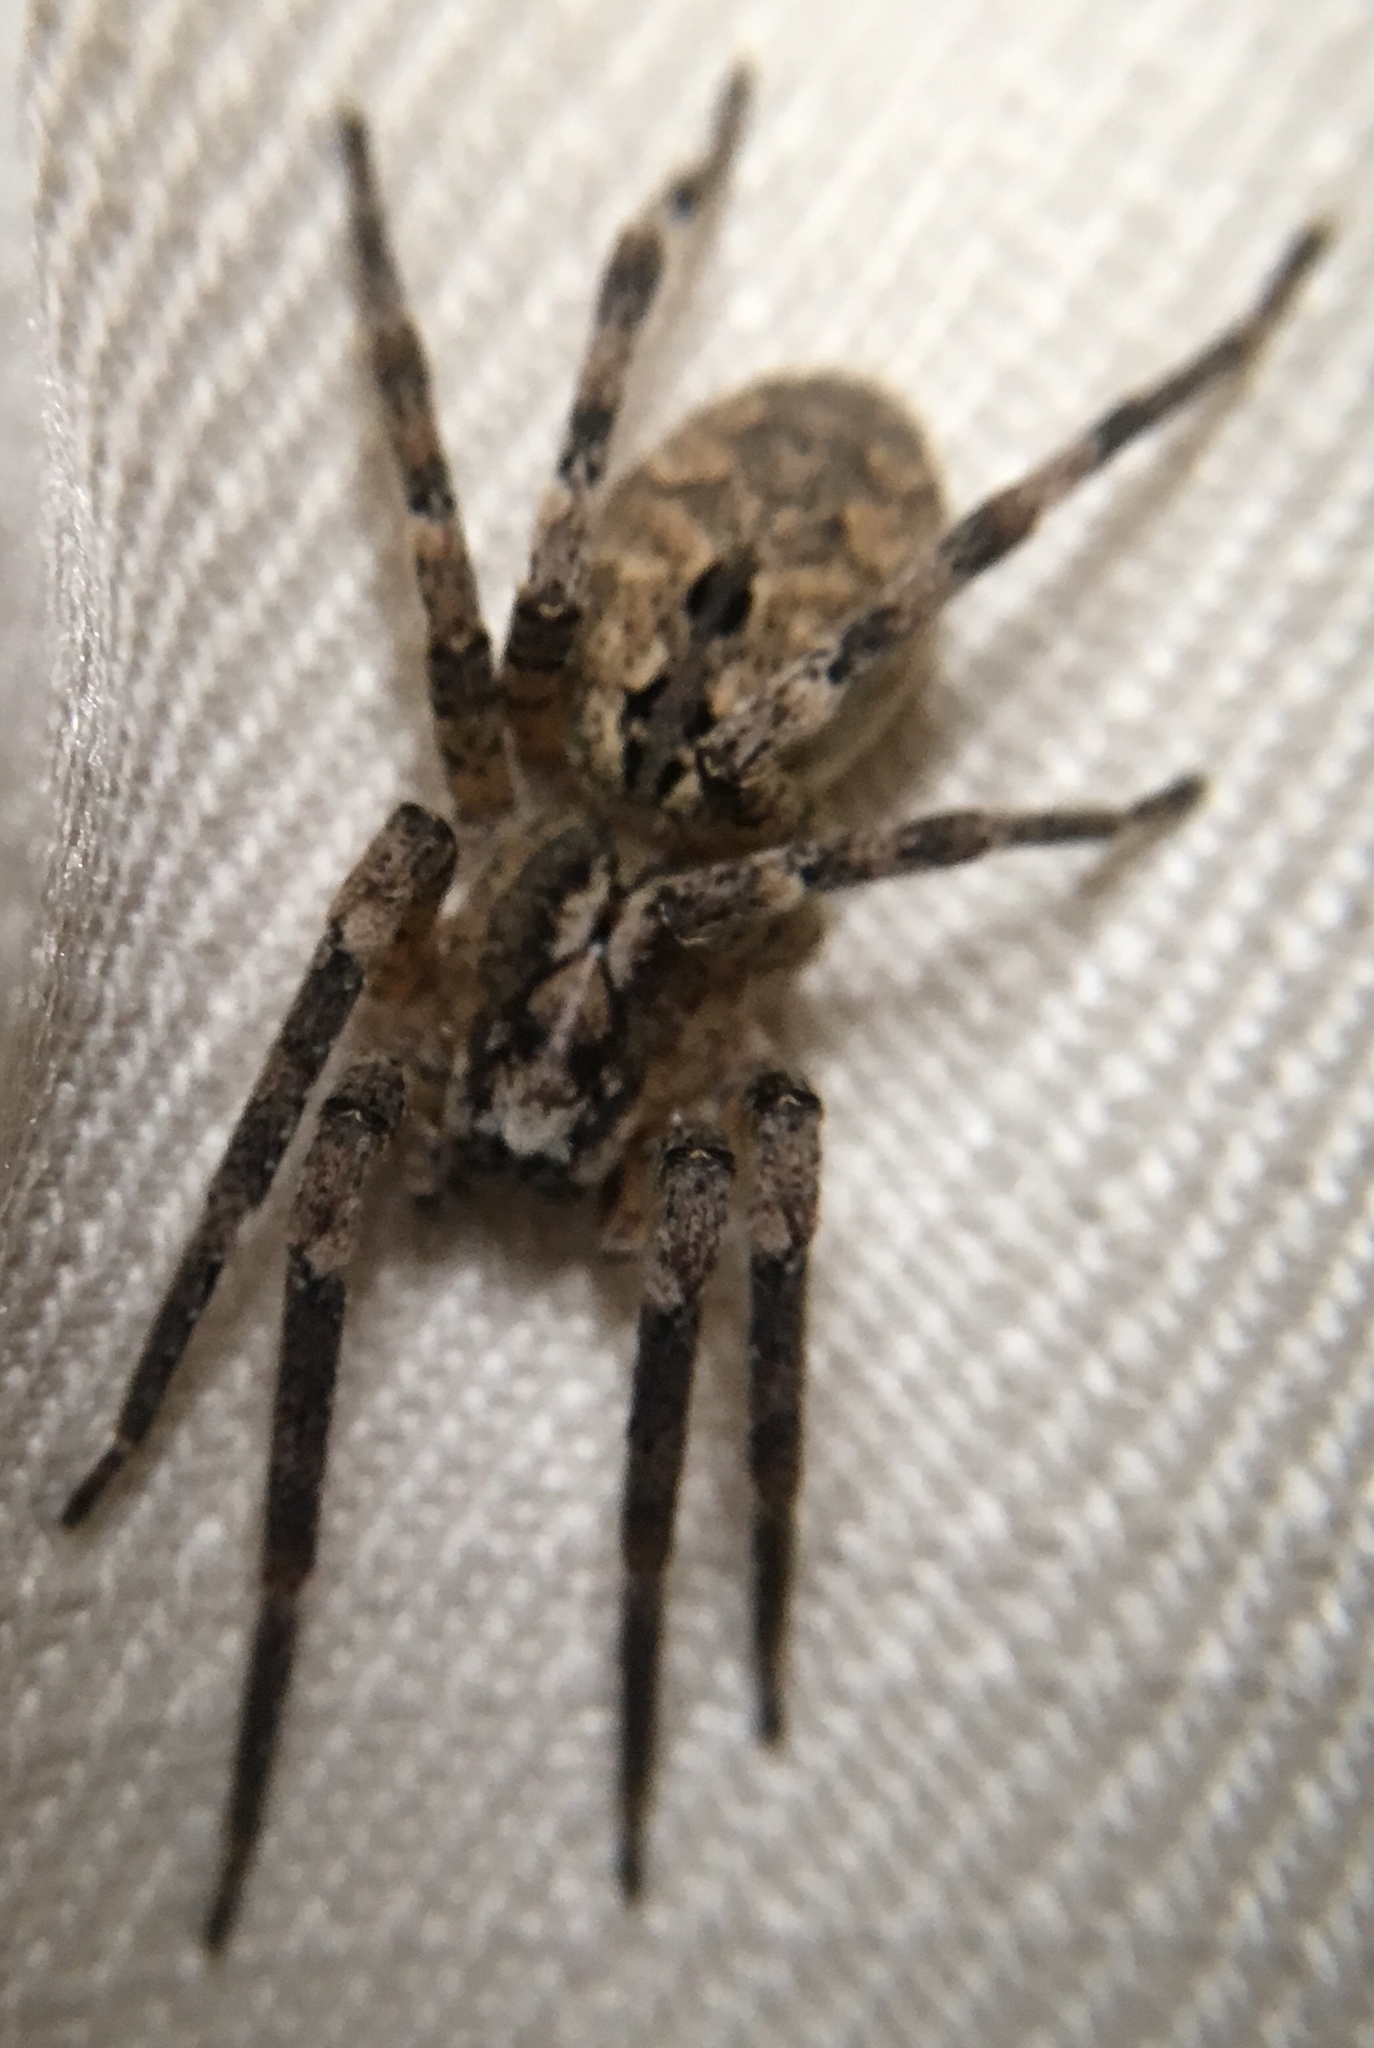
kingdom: Animalia
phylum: Arthropoda
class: Arachnida
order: Araneae
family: Zoropsidae
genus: Zoropsis
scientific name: Zoropsis spinimana
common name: Zoropsid spider
